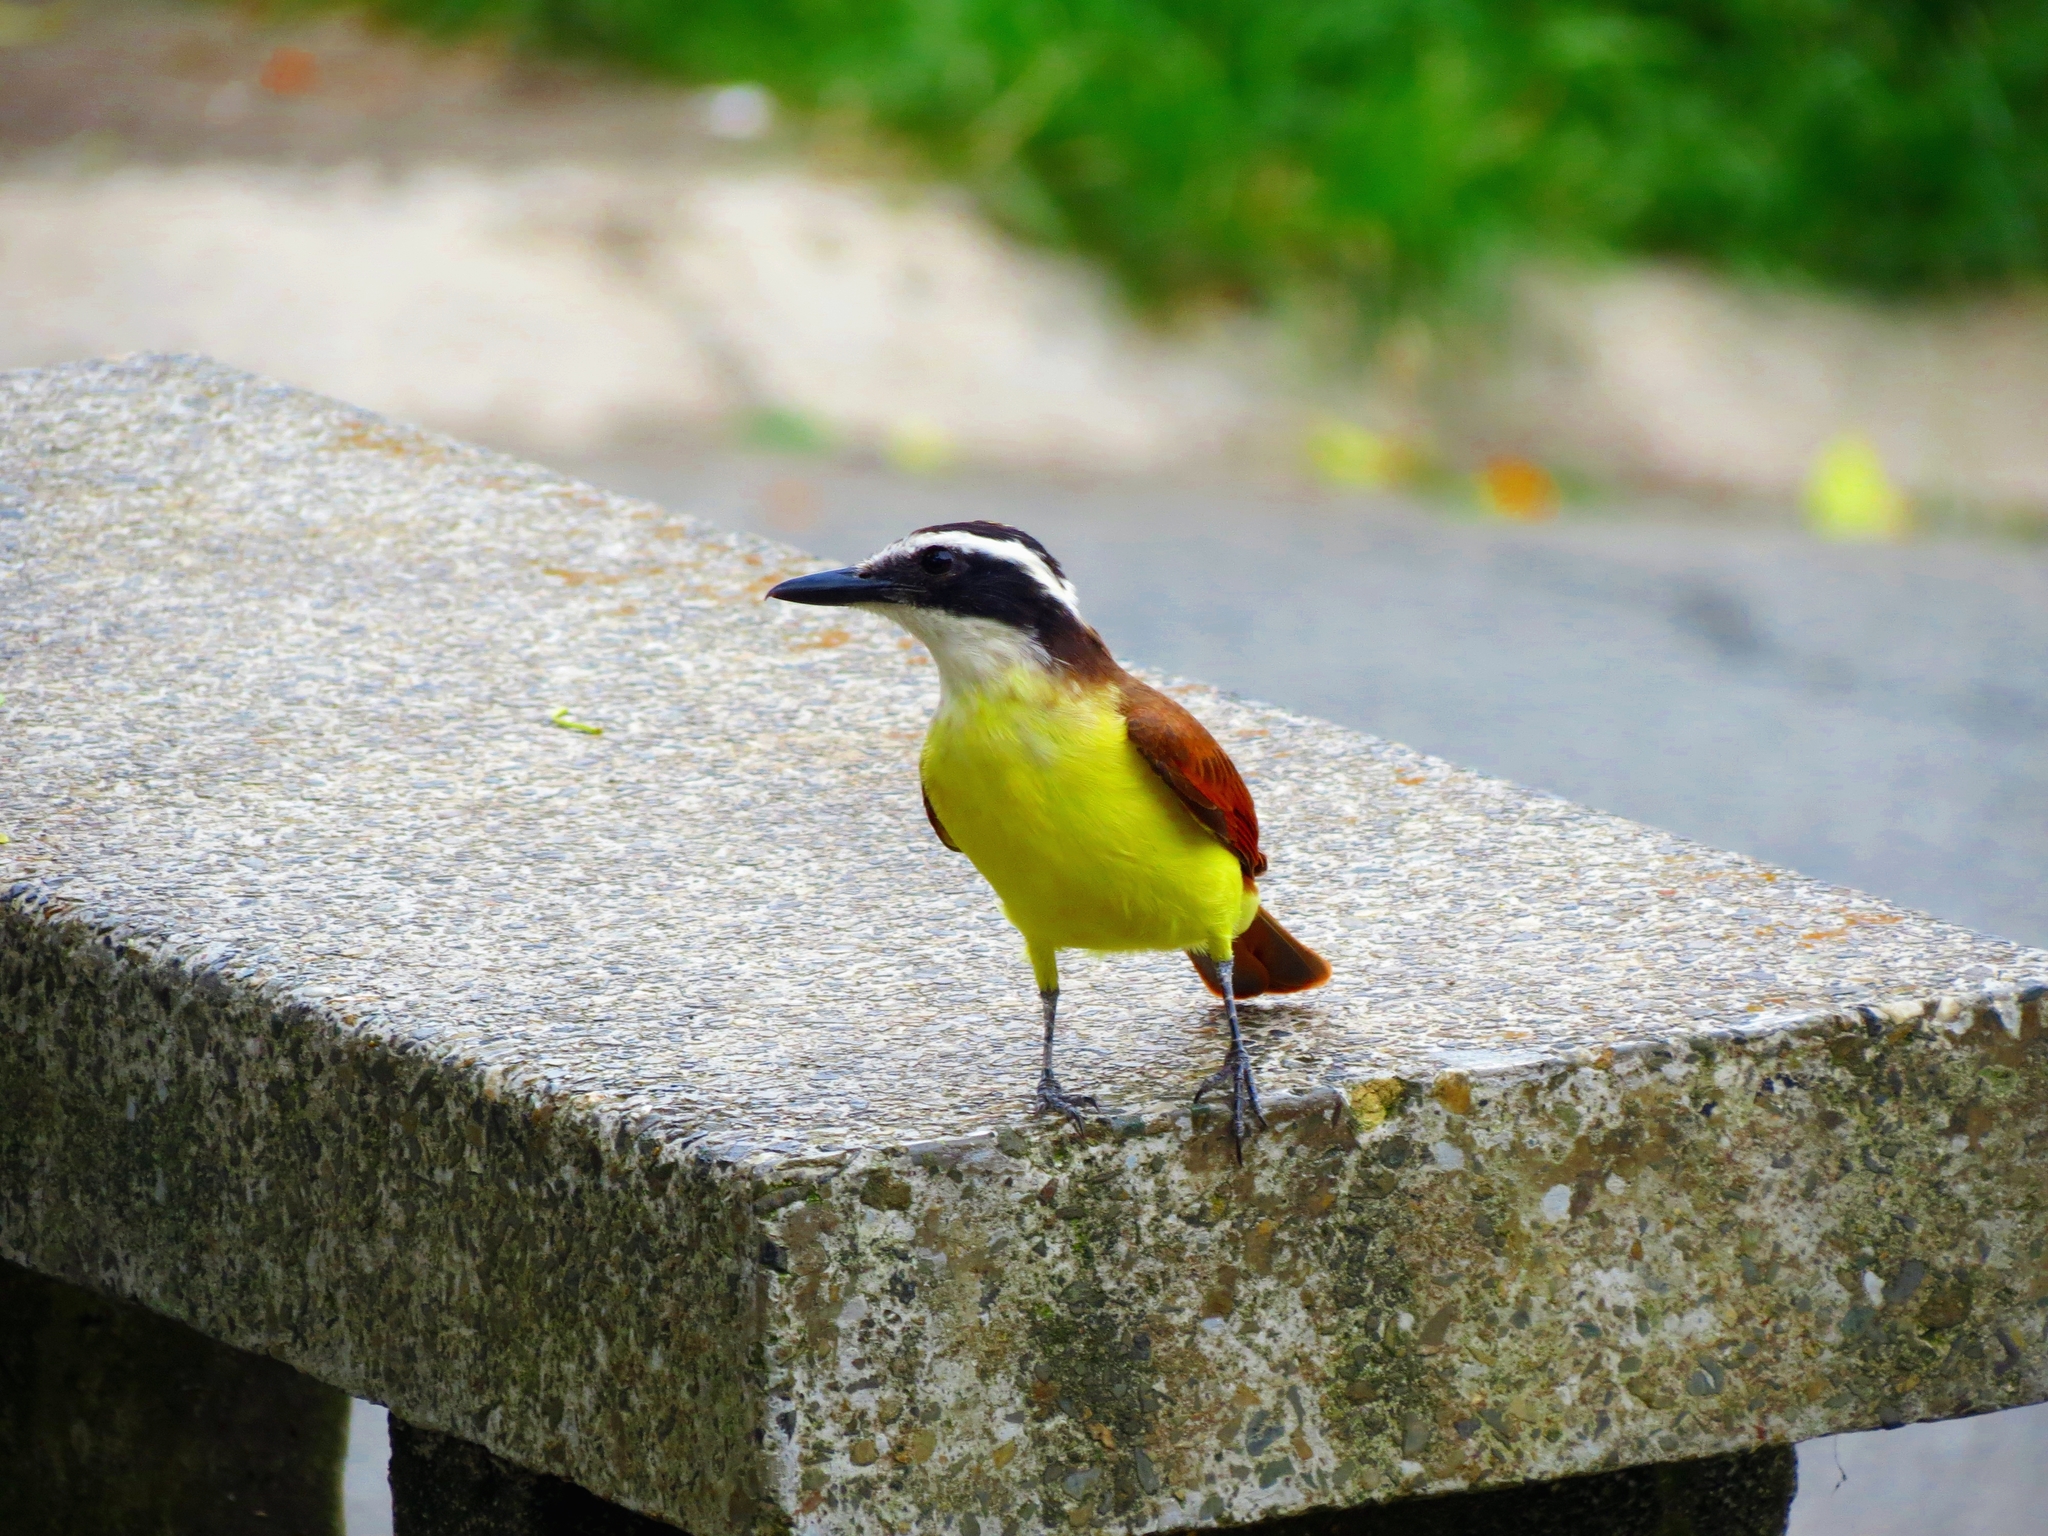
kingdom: Animalia
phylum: Chordata
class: Aves
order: Passeriformes
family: Tyrannidae
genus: Pitangus
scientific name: Pitangus sulphuratus
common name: Great kiskadee
